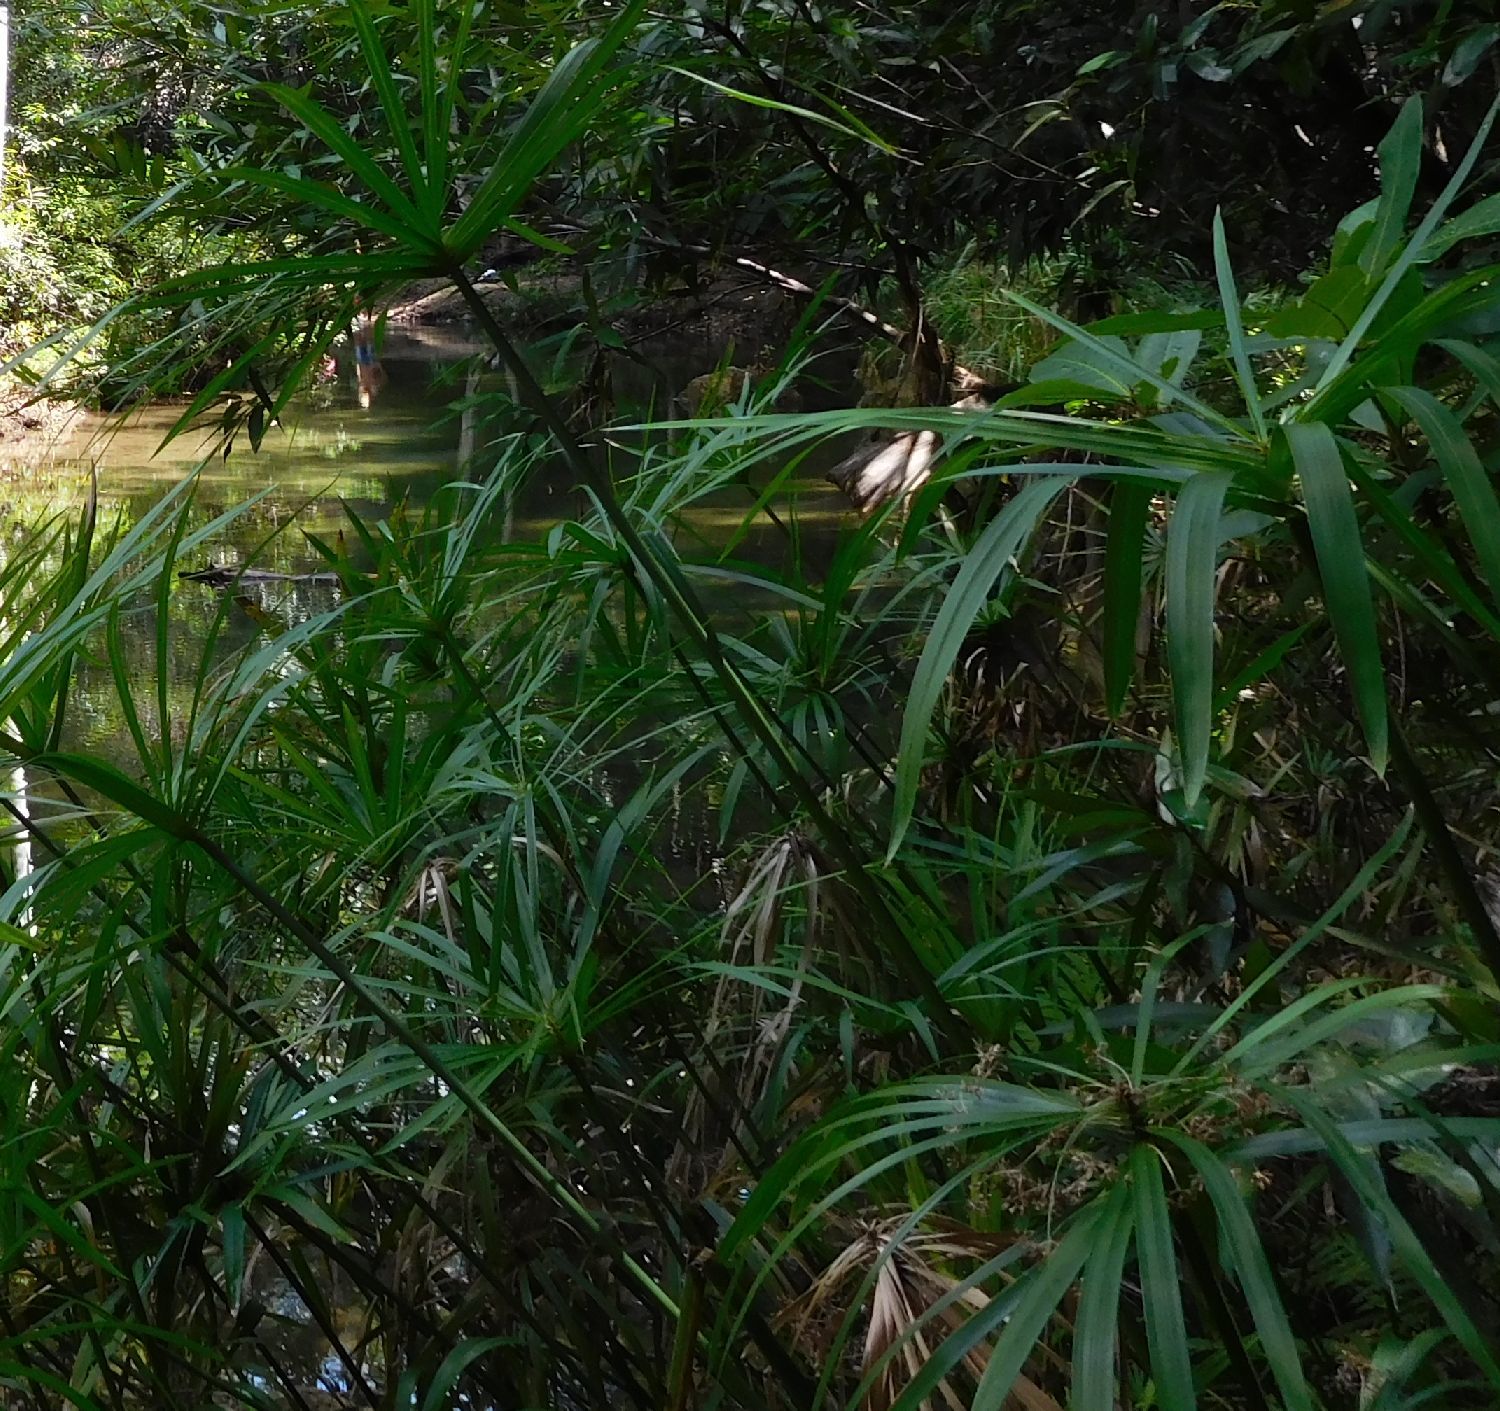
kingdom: Plantae
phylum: Tracheophyta
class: Liliopsida
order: Poales
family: Cyperaceae
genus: Cyperus
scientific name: Cyperus alternifolius
